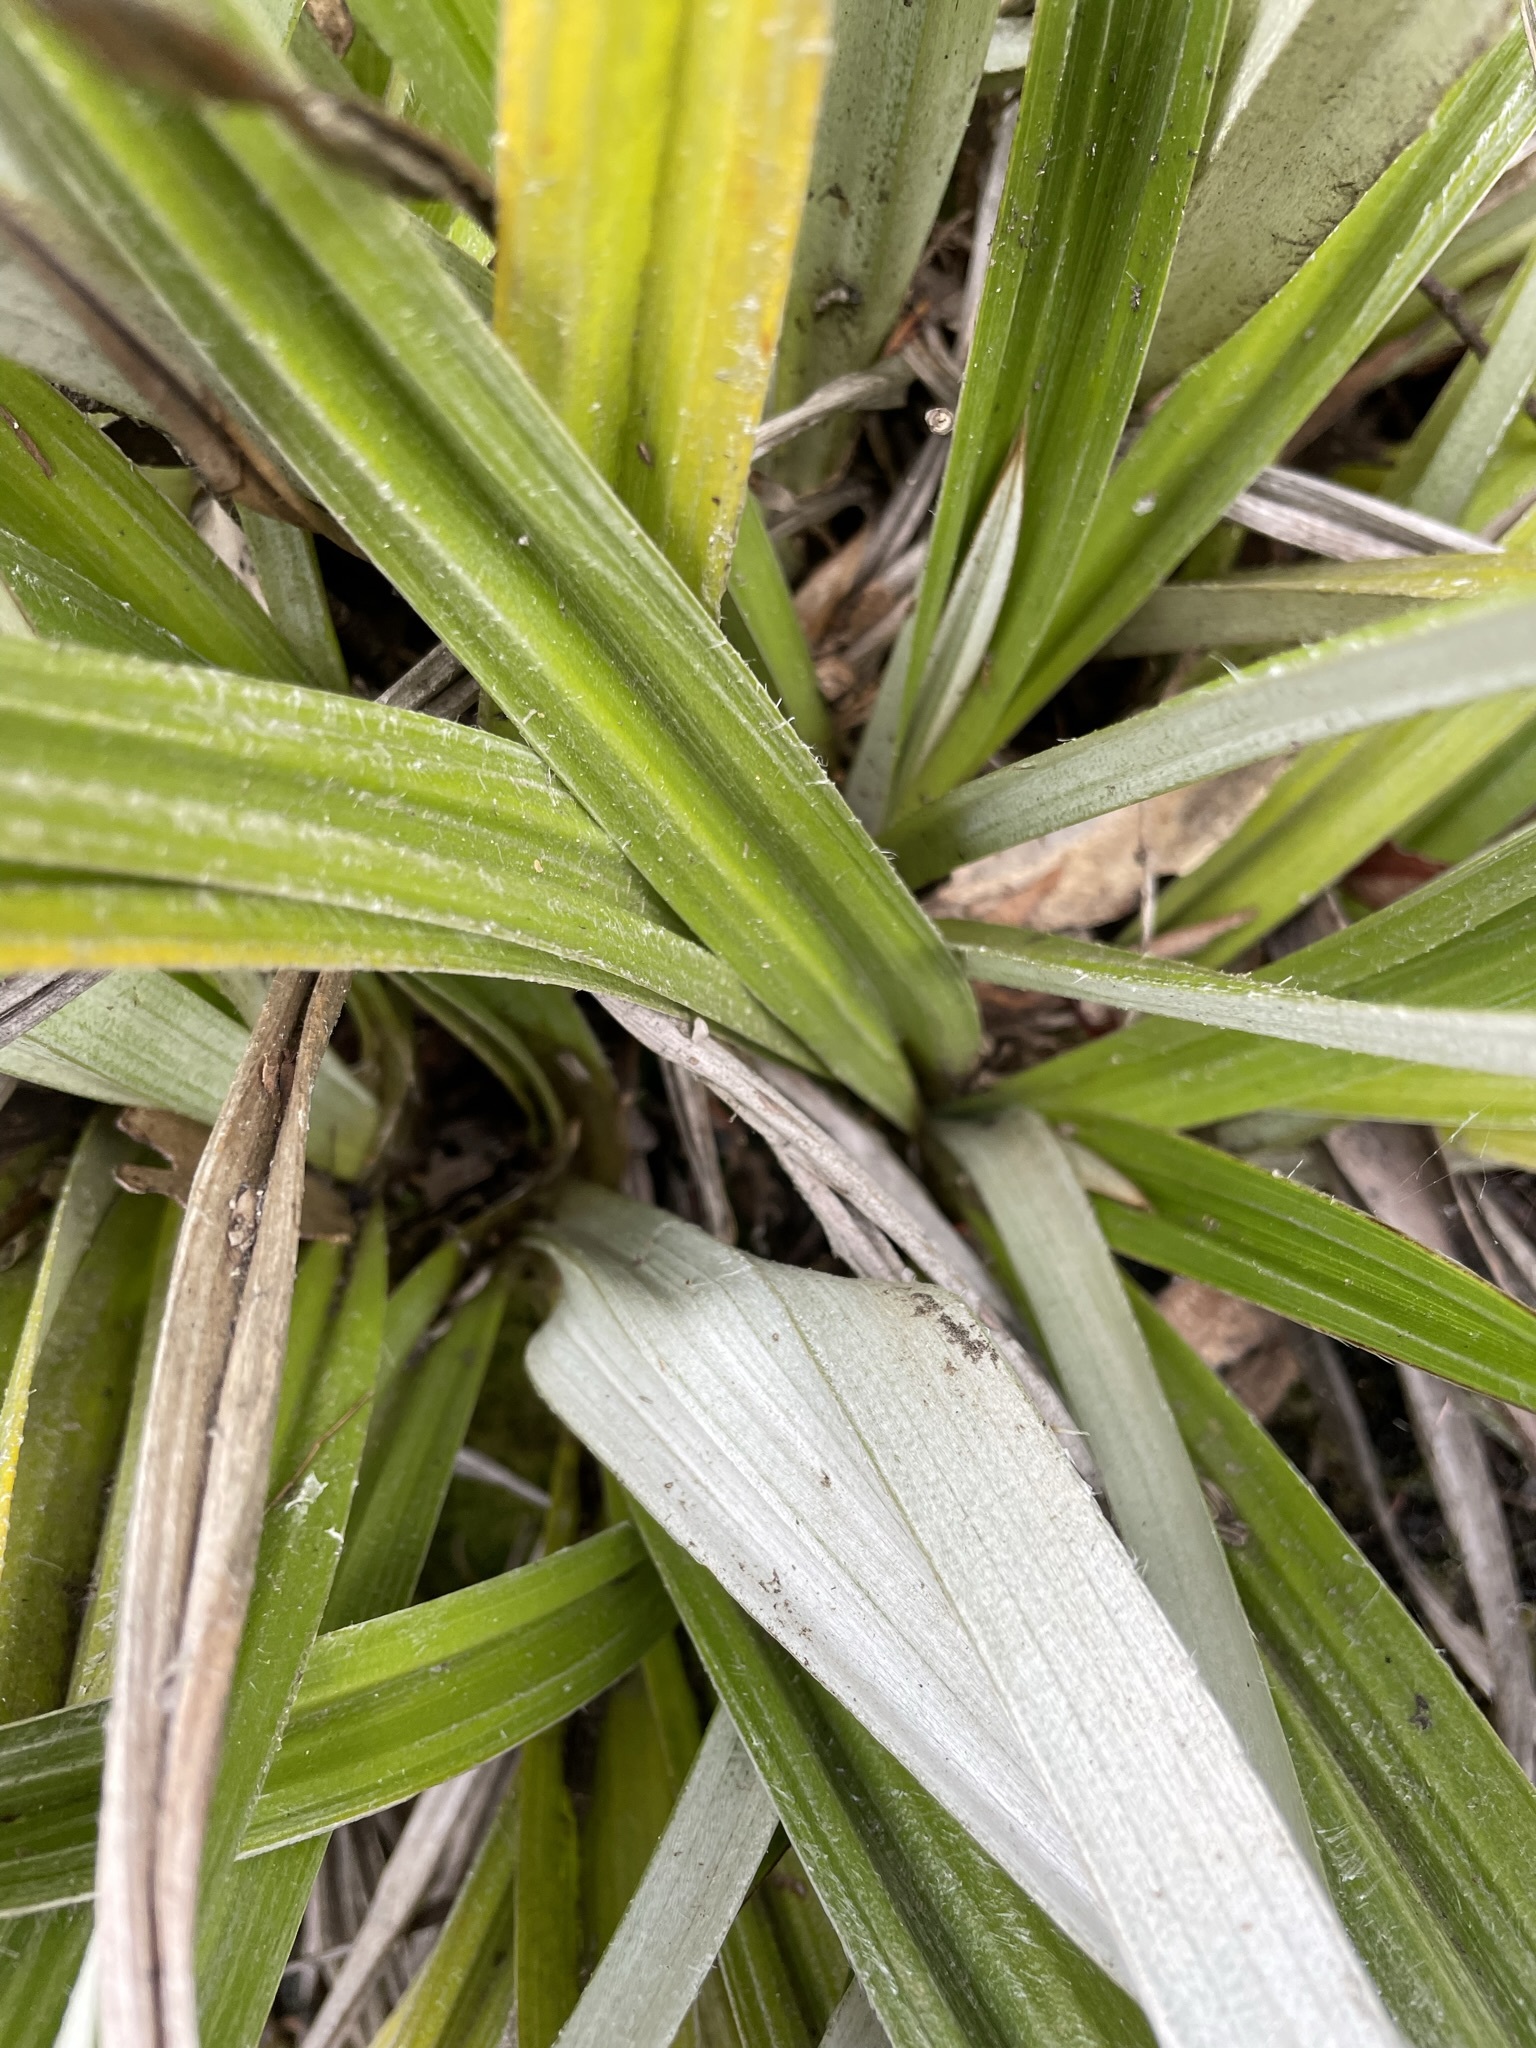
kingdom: Plantae
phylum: Tracheophyta
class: Liliopsida
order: Asparagales
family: Asteliaceae
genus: Astelia
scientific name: Astelia alpina
